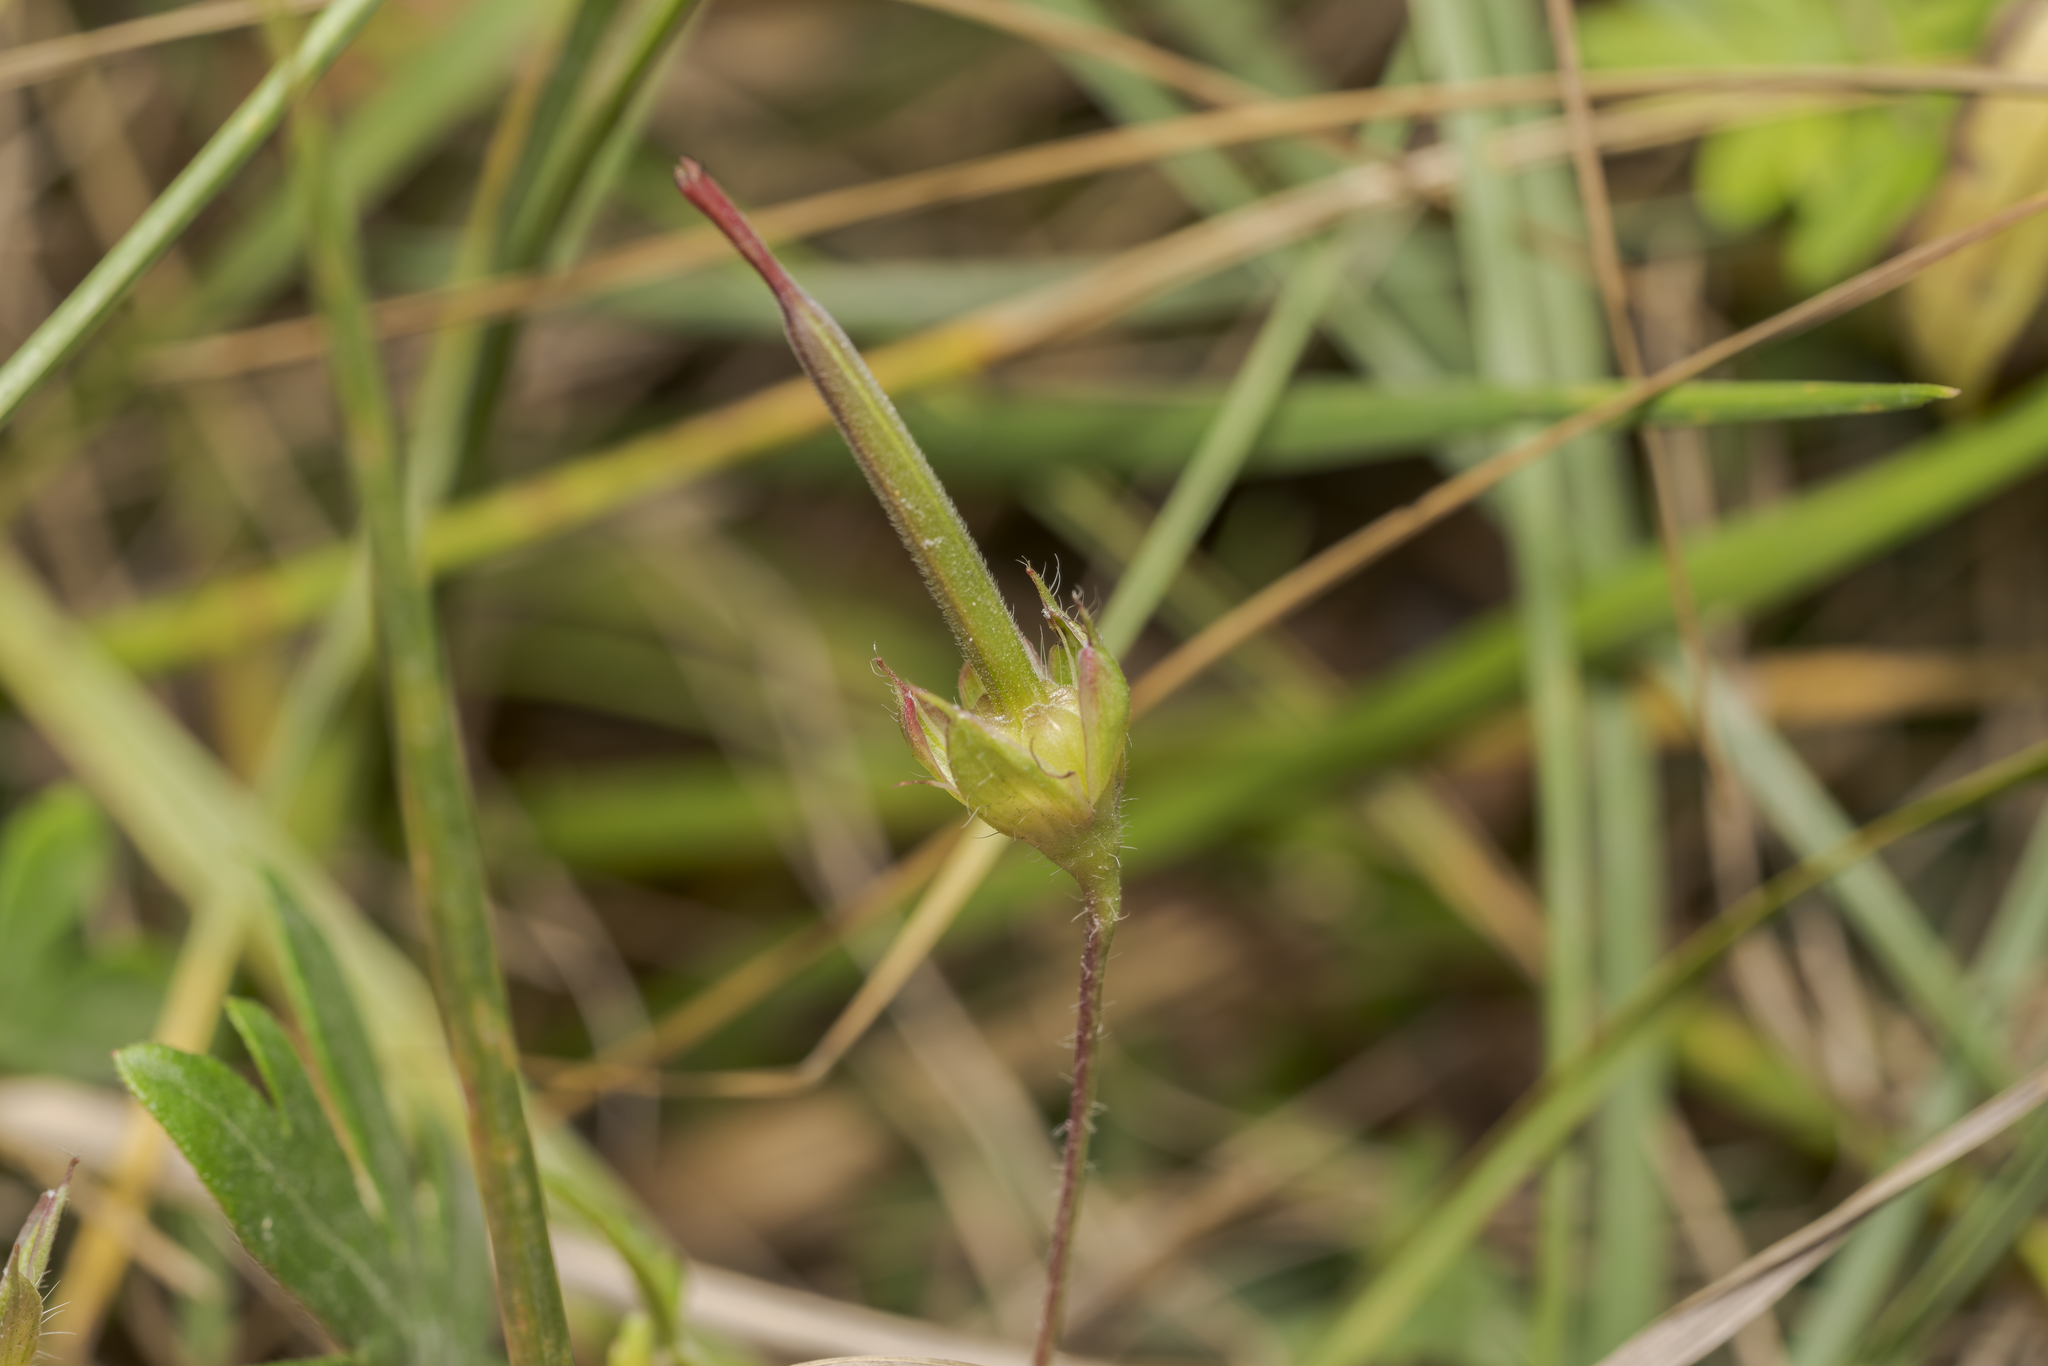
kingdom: Plantae
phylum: Tracheophyta
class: Magnoliopsida
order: Geraniales
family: Geraniaceae
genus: Geranium
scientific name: Geranium sanguineum
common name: Bloody crane's-bill
